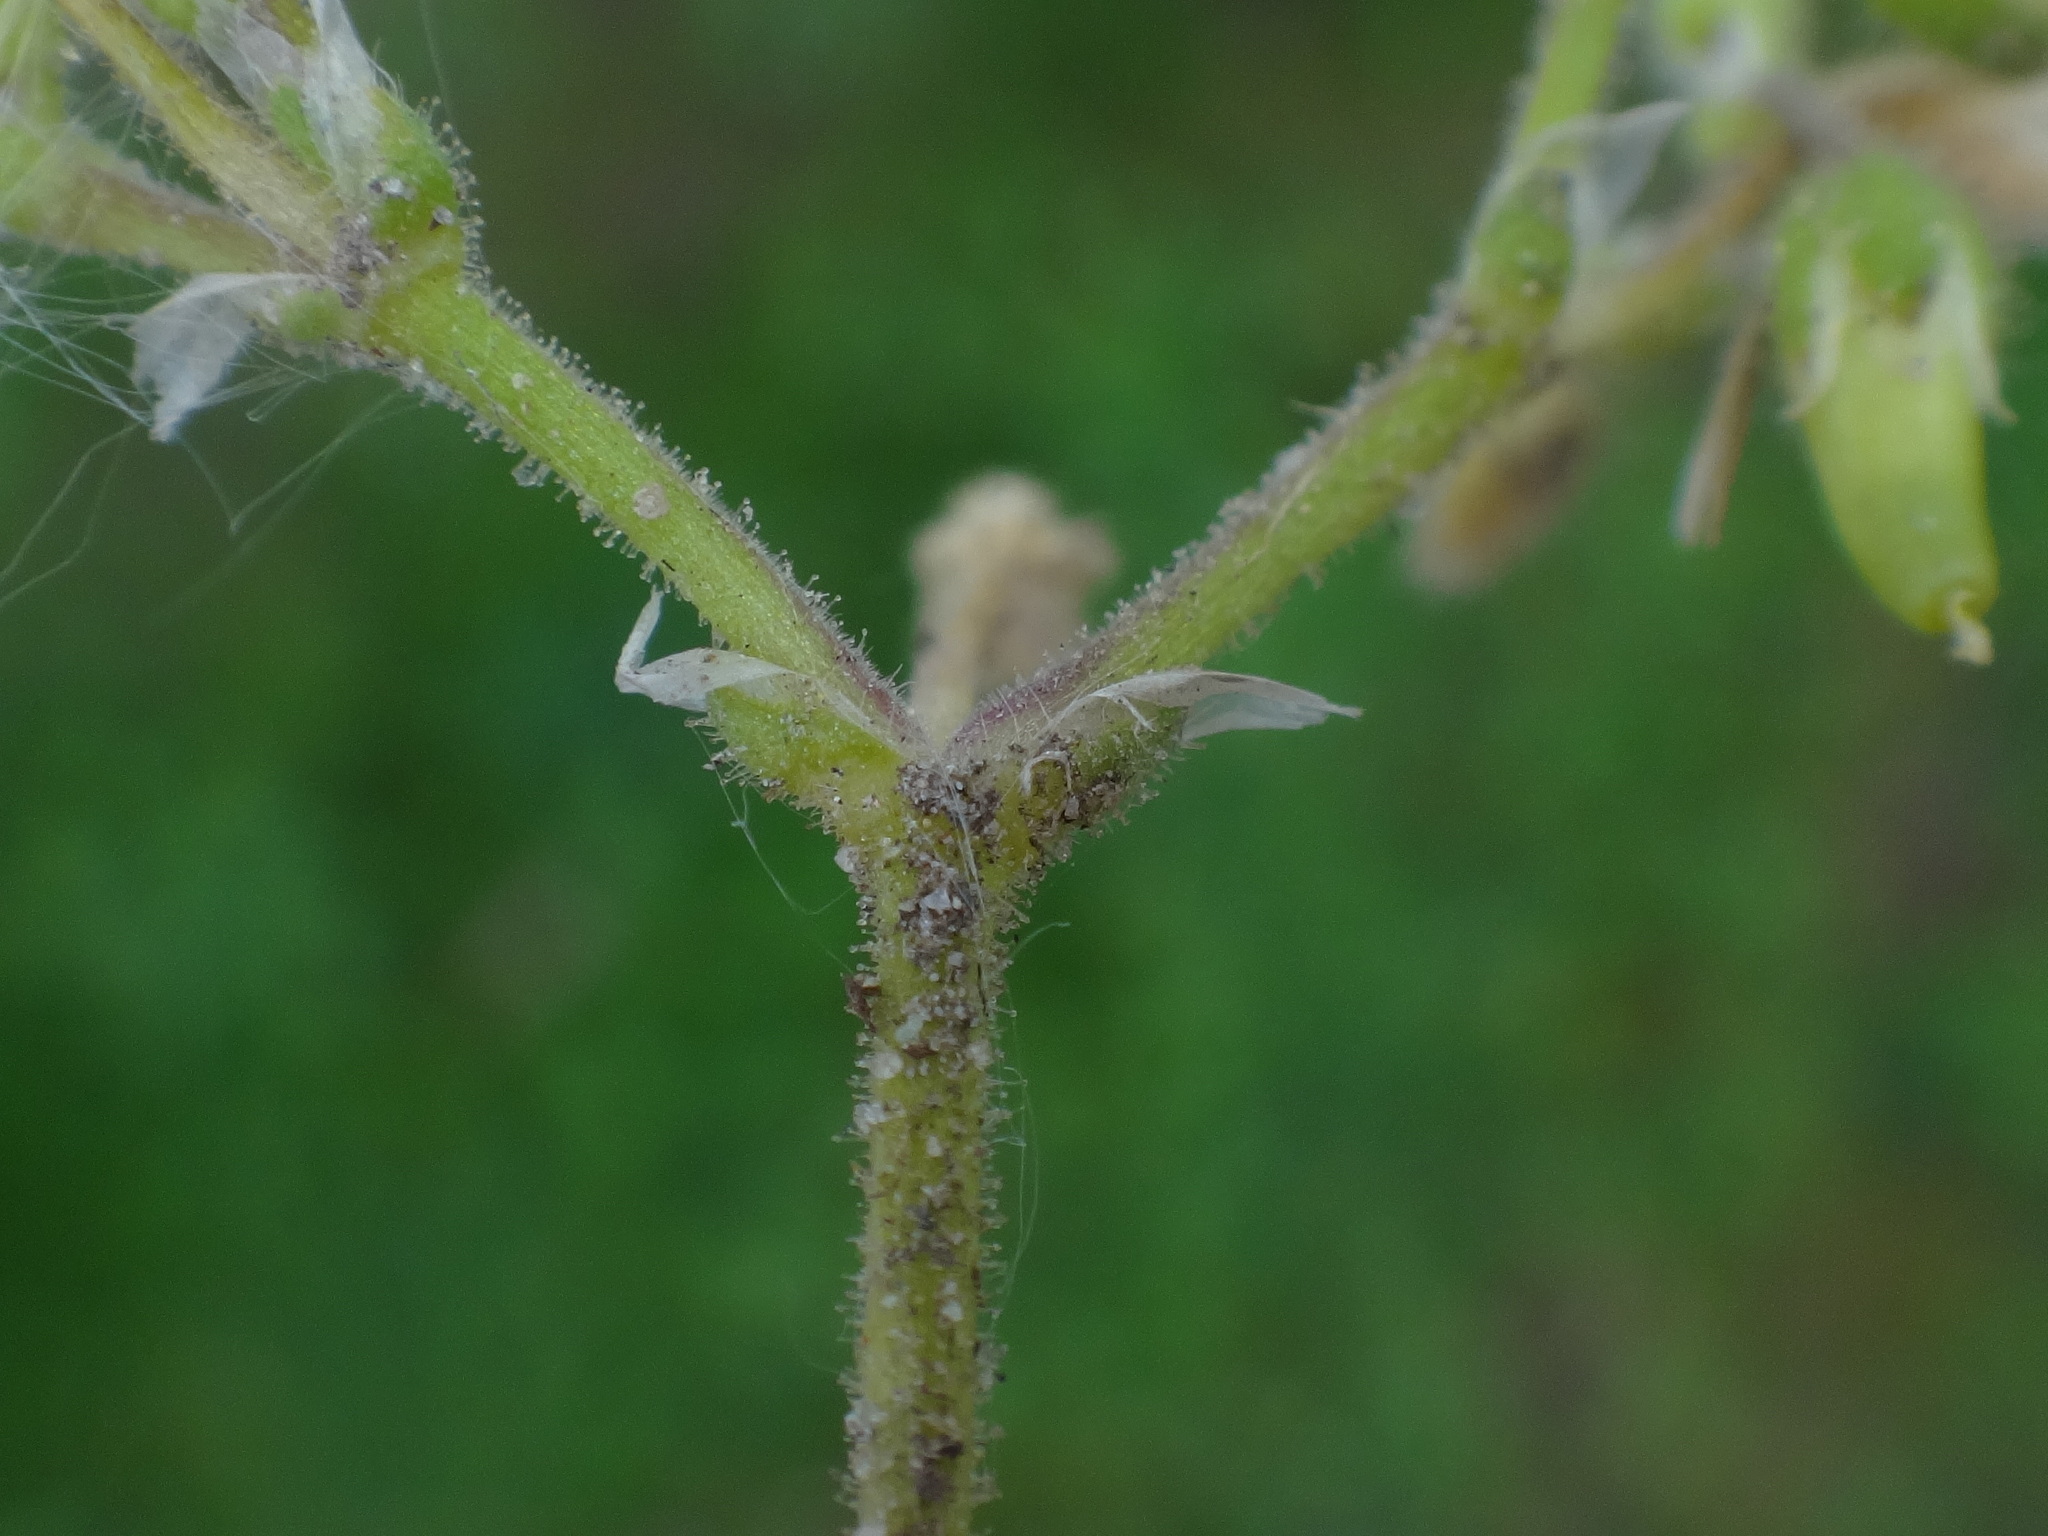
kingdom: Plantae
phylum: Tracheophyta
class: Magnoliopsida
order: Caryophyllales
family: Caryophyllaceae
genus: Cerastium
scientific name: Cerastium semidecandrum
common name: Little mouse-ear
